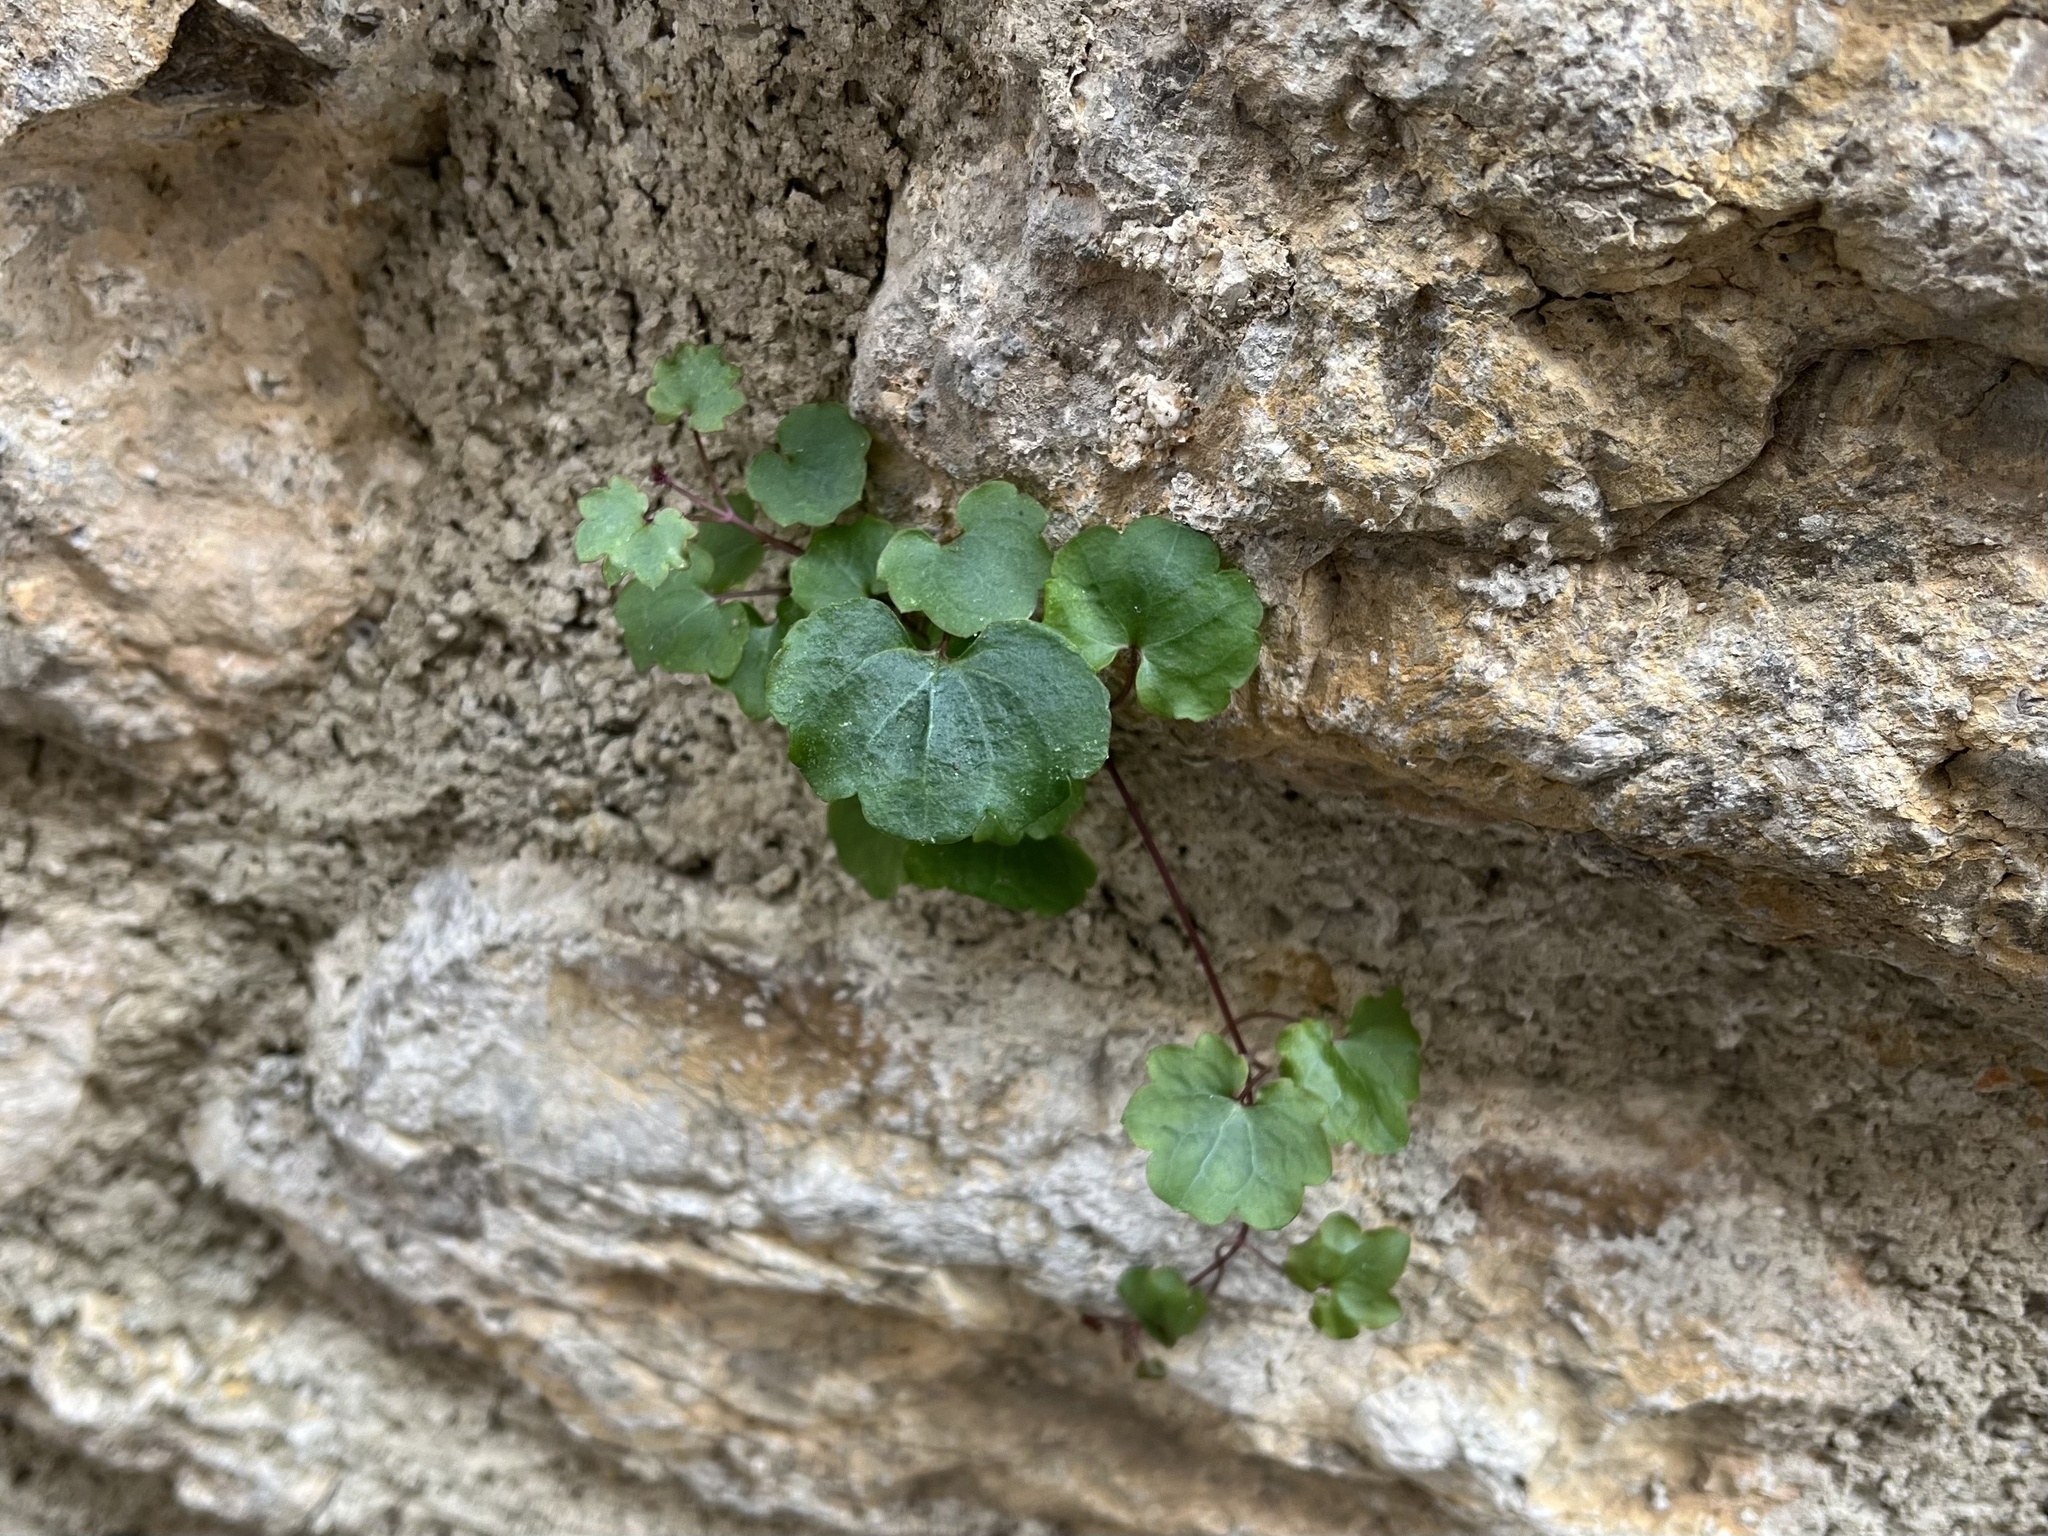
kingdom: Plantae
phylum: Tracheophyta
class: Magnoliopsida
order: Lamiales
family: Plantaginaceae
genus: Cymbalaria
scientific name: Cymbalaria muralis
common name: Ivy-leaved toadflax
